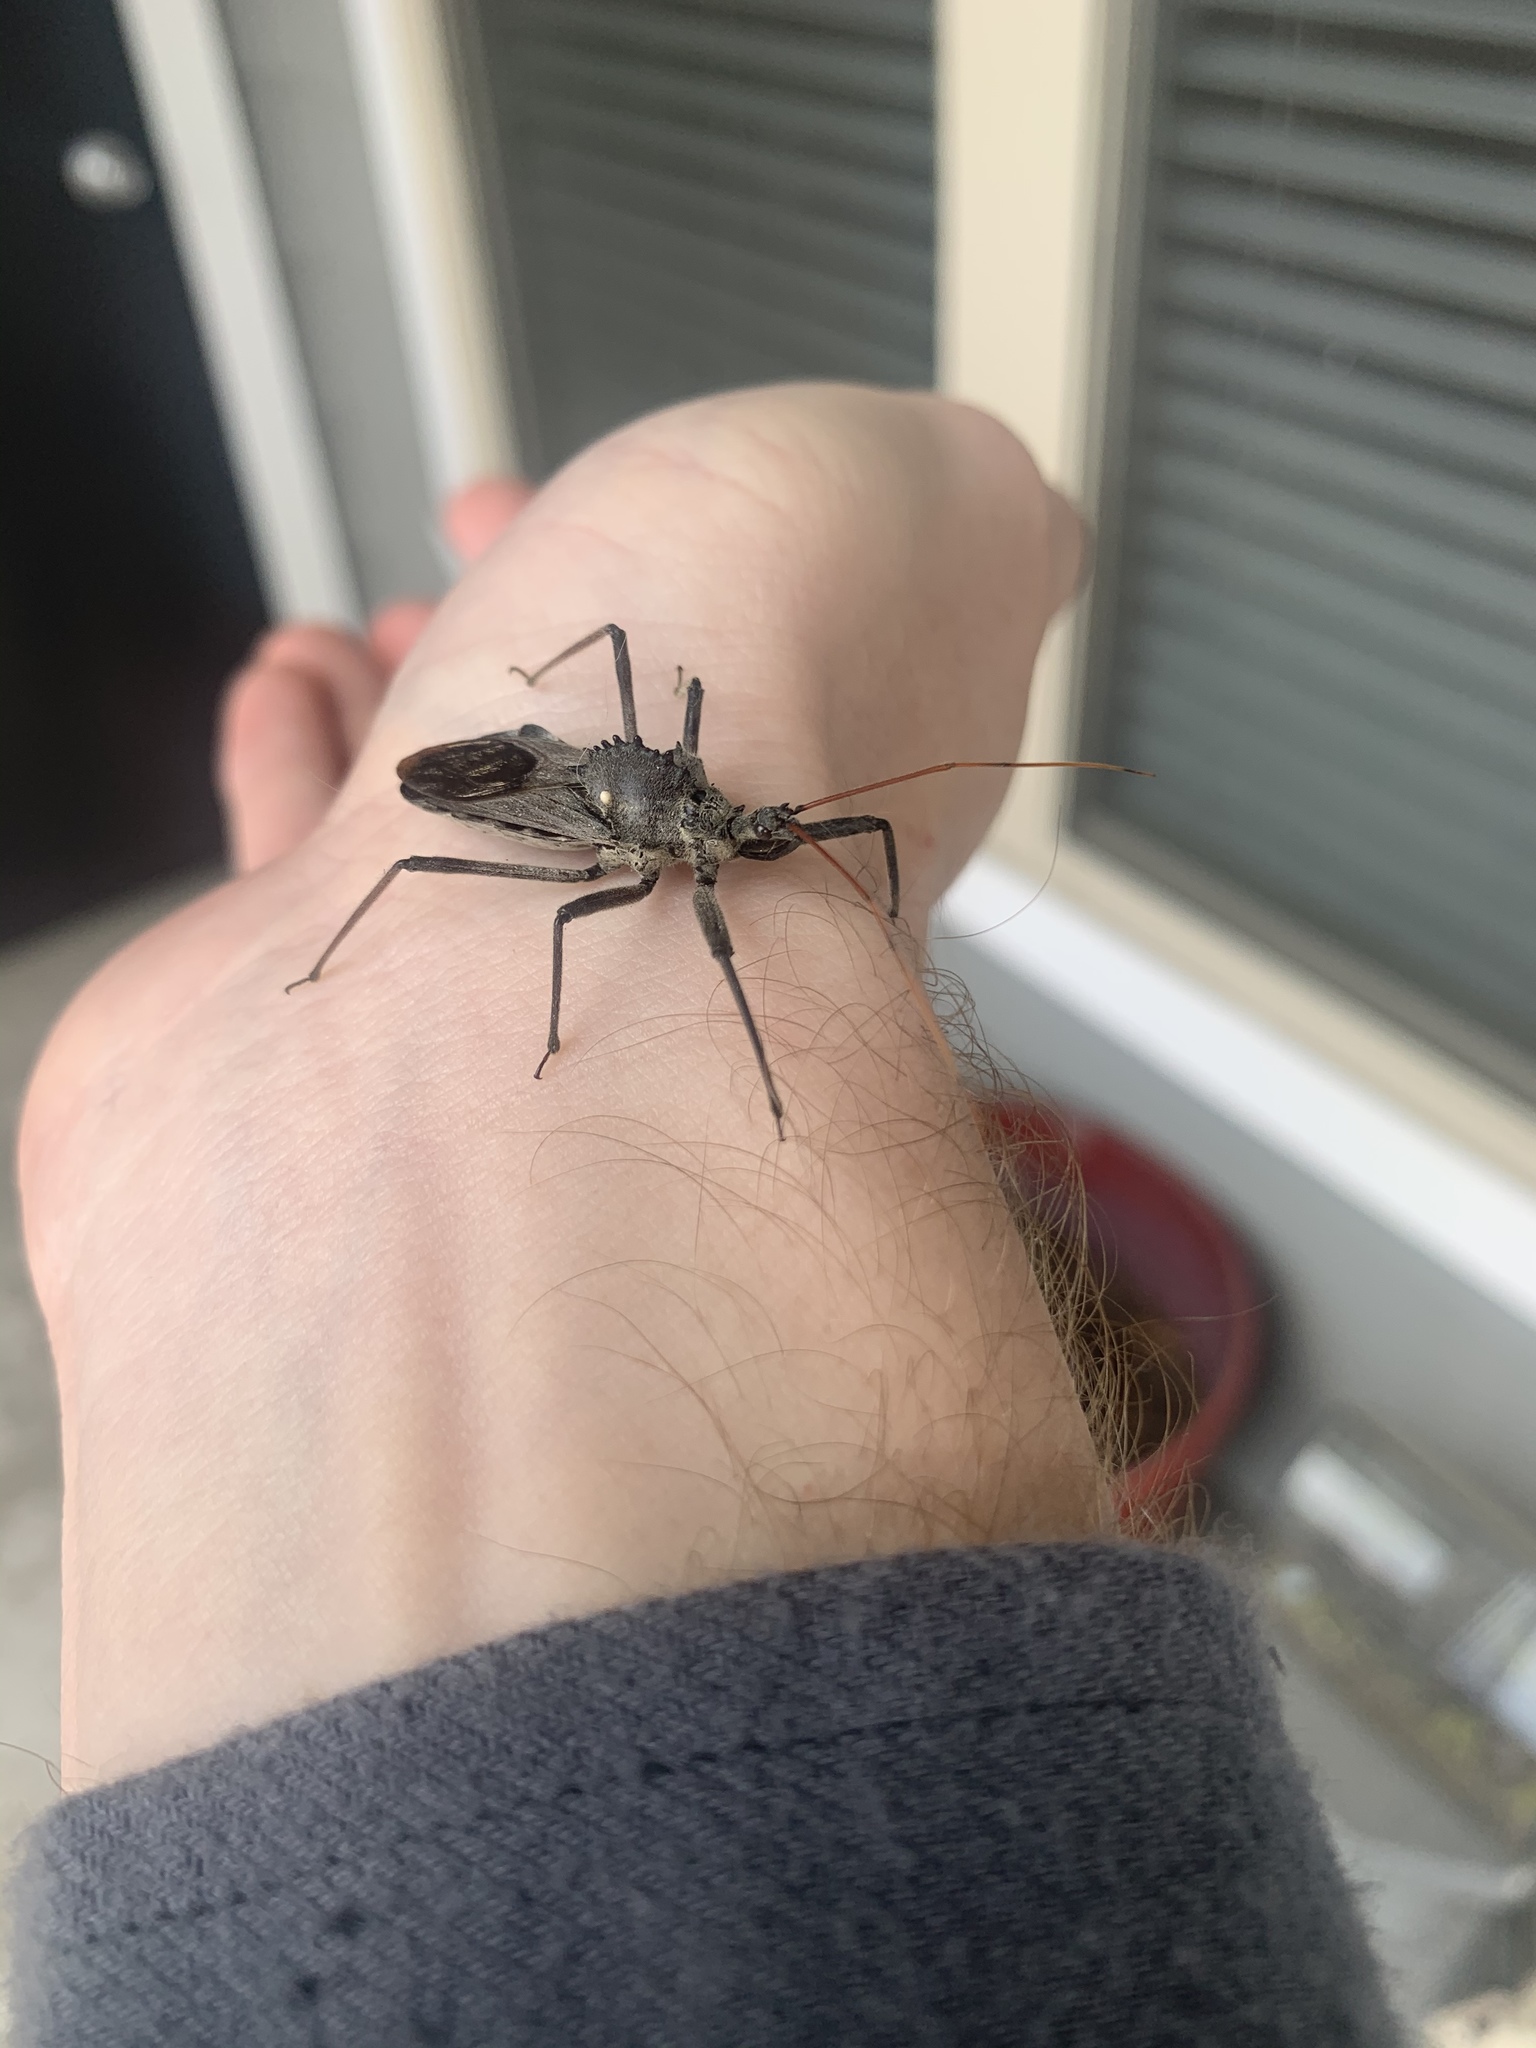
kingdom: Animalia
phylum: Arthropoda
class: Insecta
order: Hemiptera
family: Reduviidae
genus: Arilus
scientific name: Arilus cristatus
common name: North american wheel bug
